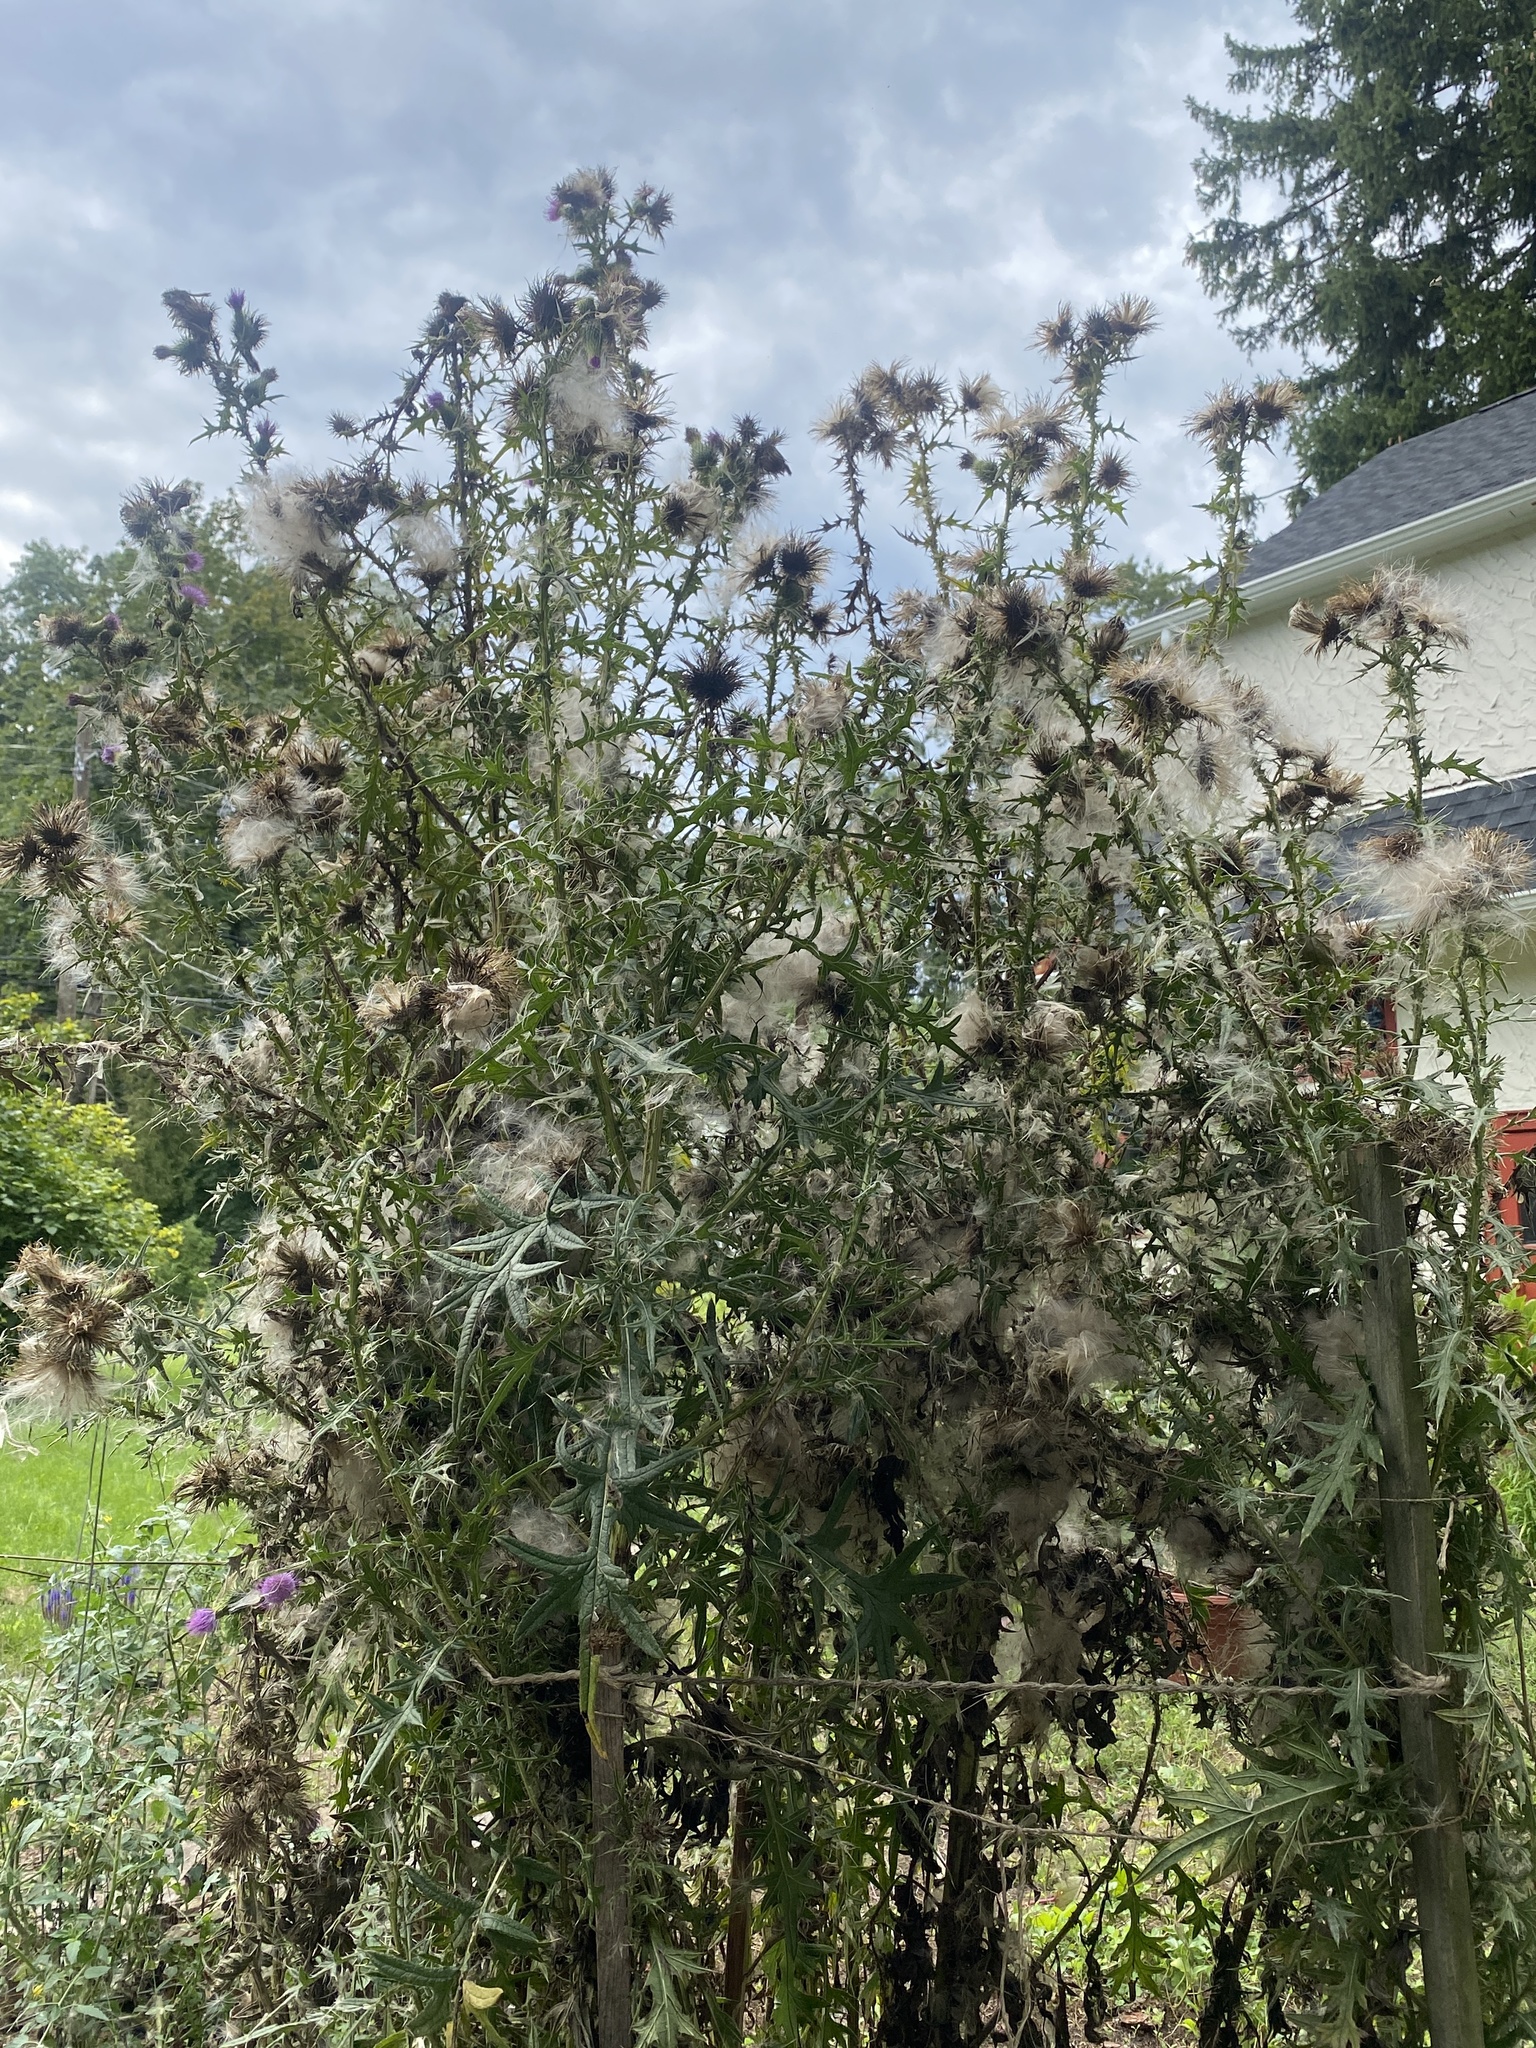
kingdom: Plantae
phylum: Tracheophyta
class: Magnoliopsida
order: Asterales
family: Asteraceae
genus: Cirsium
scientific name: Cirsium vulgare
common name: Bull thistle
